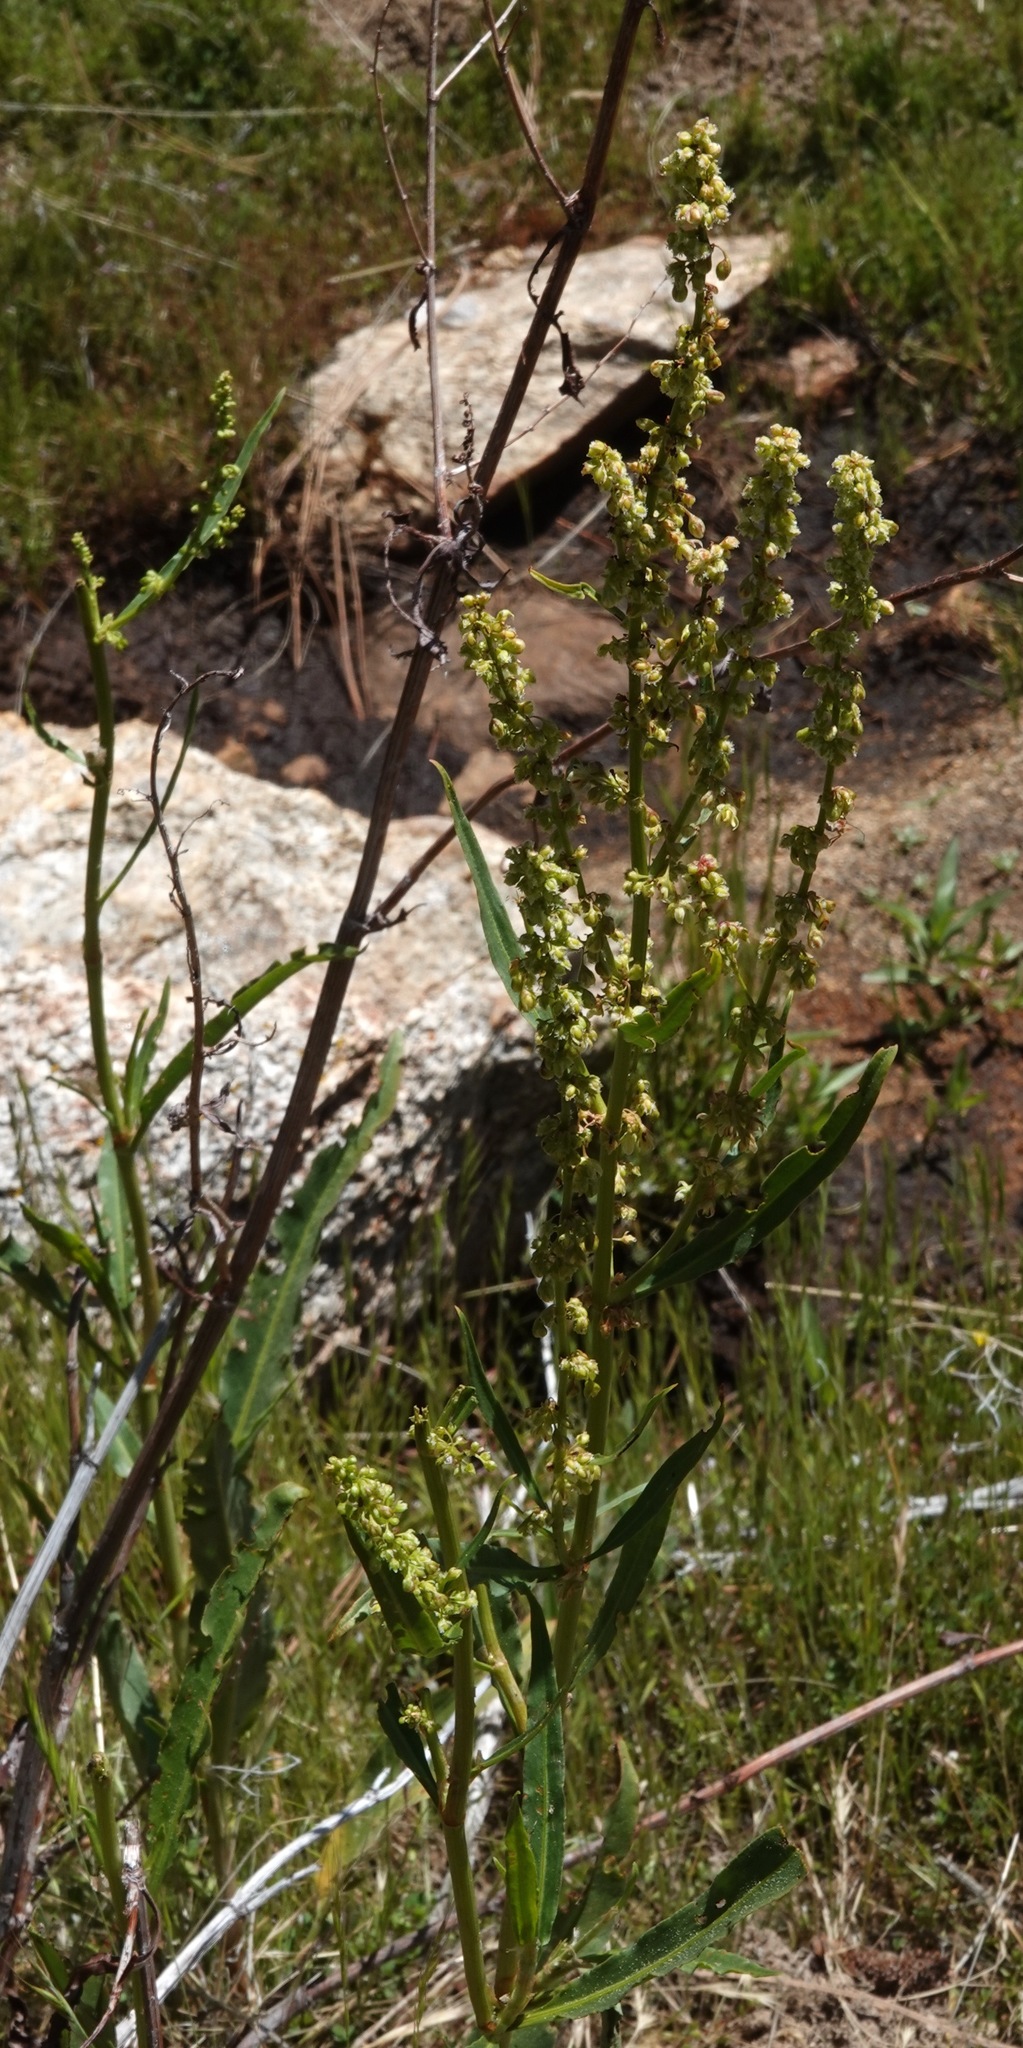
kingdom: Plantae
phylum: Tracheophyta
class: Magnoliopsida
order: Caryophyllales
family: Polygonaceae
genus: Rumex
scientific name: Rumex salicifolius
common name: Willow-leaved dock
